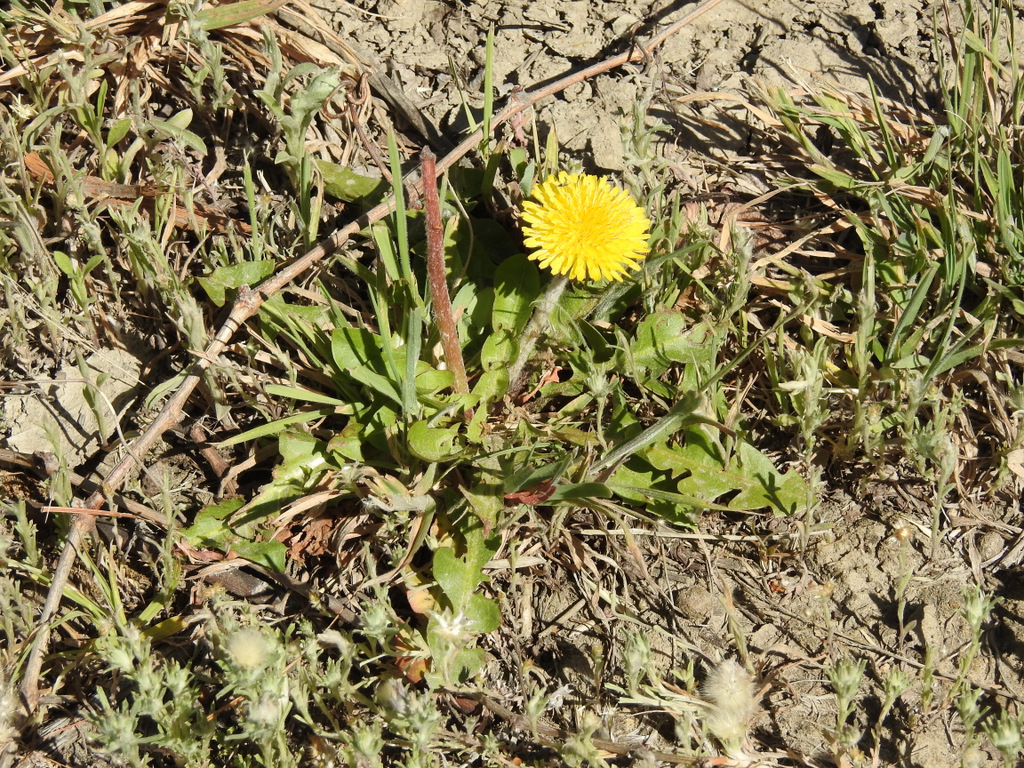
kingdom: Plantae
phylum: Tracheophyta
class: Magnoliopsida
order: Asterales
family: Asteraceae
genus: Taraxacum
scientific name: Taraxacum officinale
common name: Common dandelion
